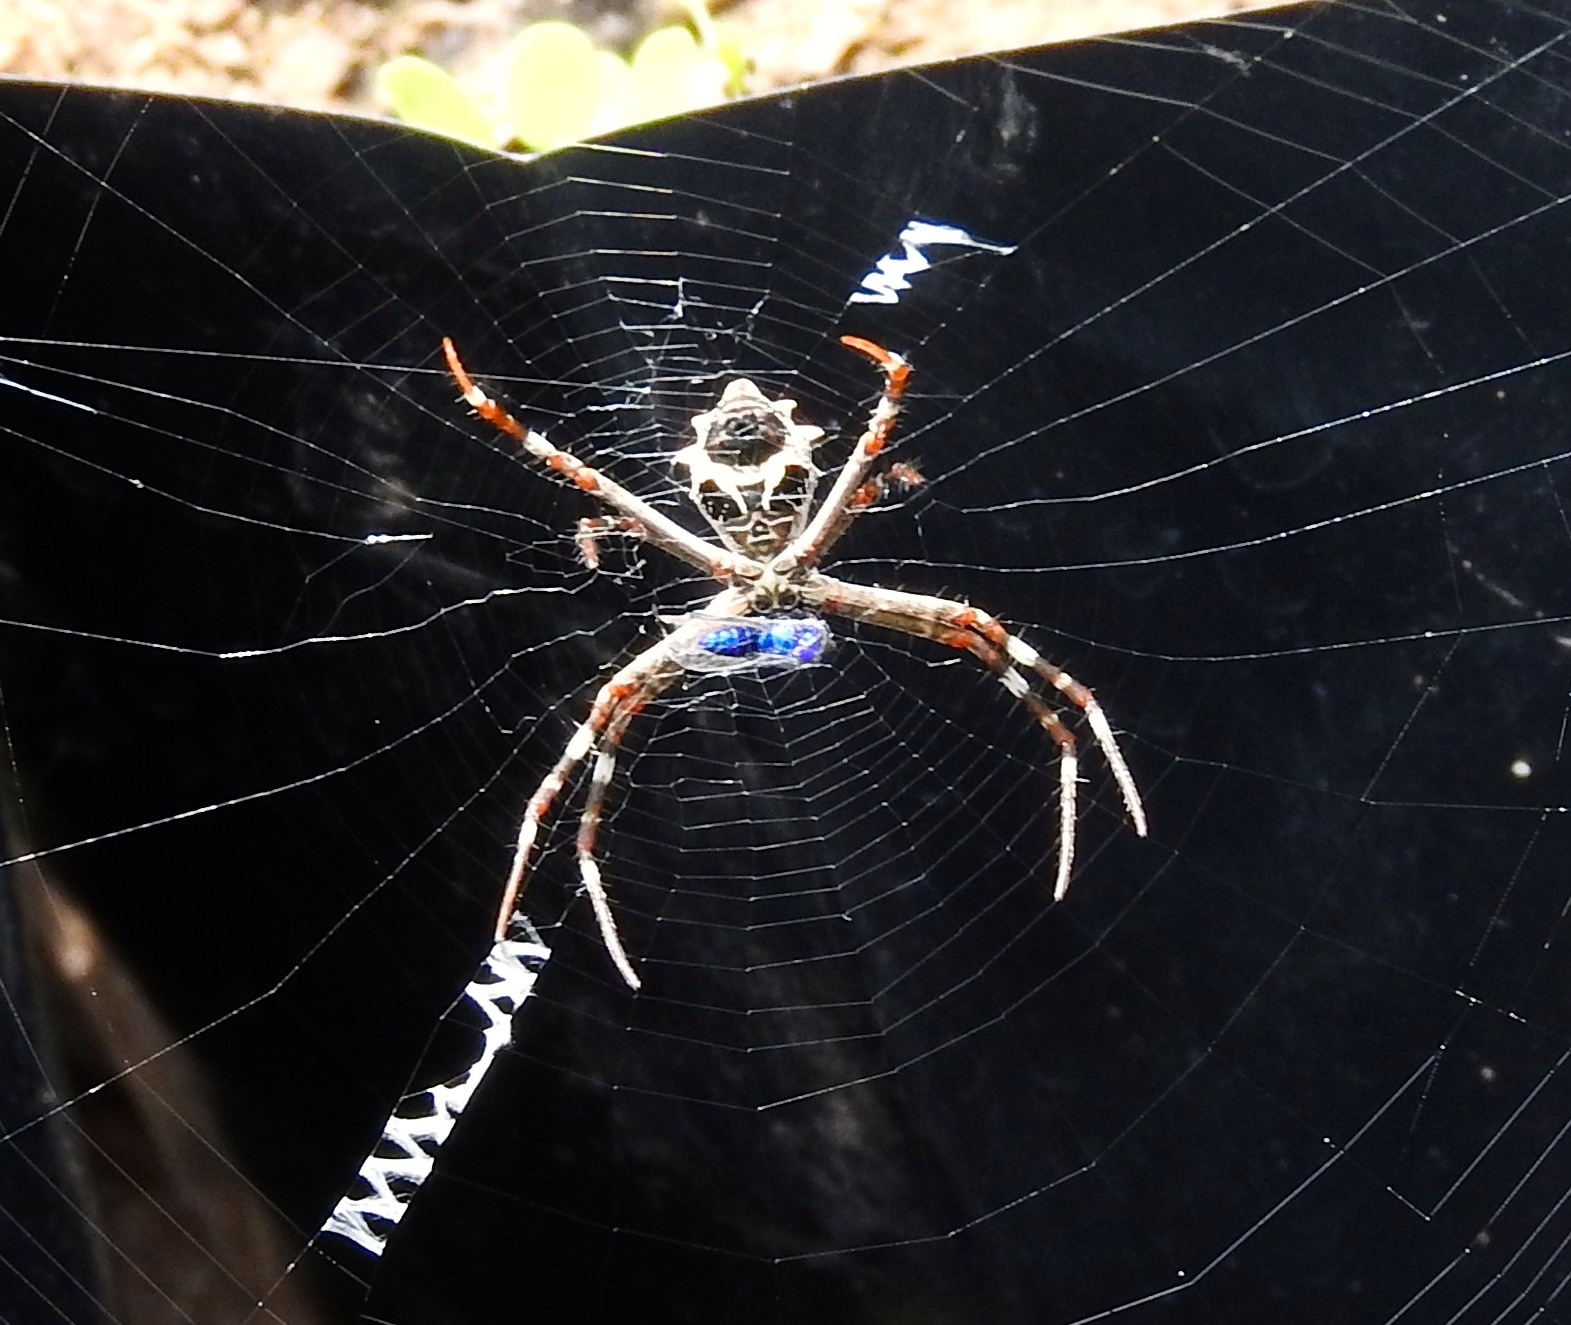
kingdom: Animalia
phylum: Arthropoda
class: Arachnida
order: Araneae
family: Araneidae
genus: Argiope
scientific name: Argiope argentata
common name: Orb weavers
